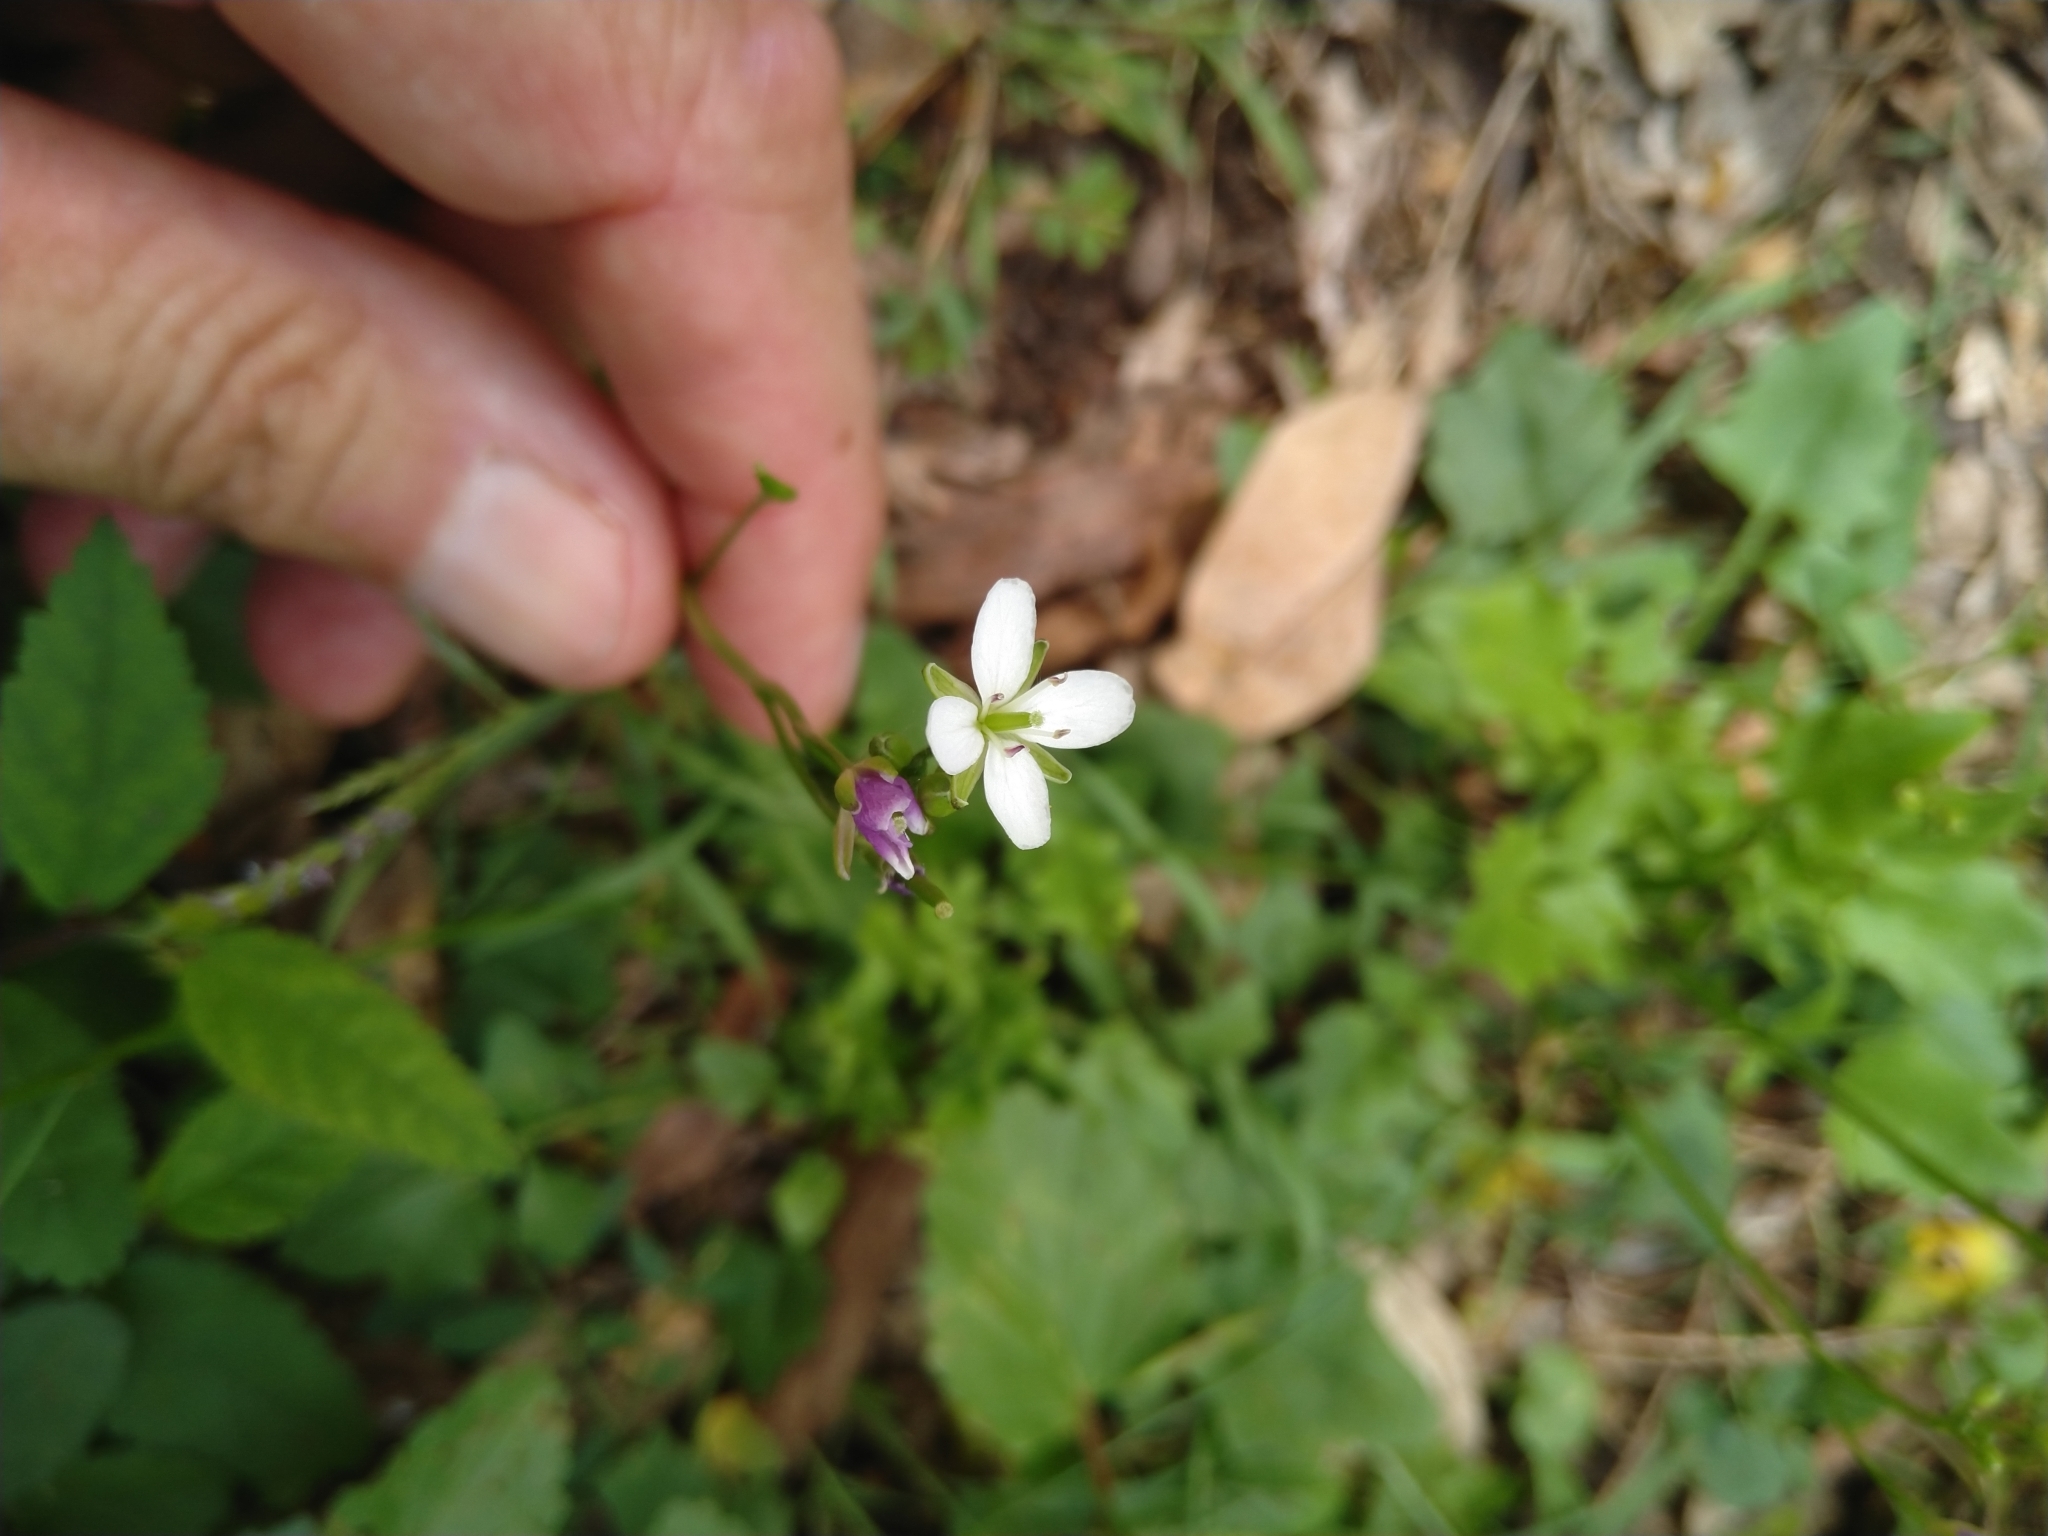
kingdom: Plantae
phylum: Tracheophyta
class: Magnoliopsida
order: Brassicales
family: Brassicaceae
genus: Cardamine
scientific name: Cardamine hirsuta
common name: Hairy bittercress
